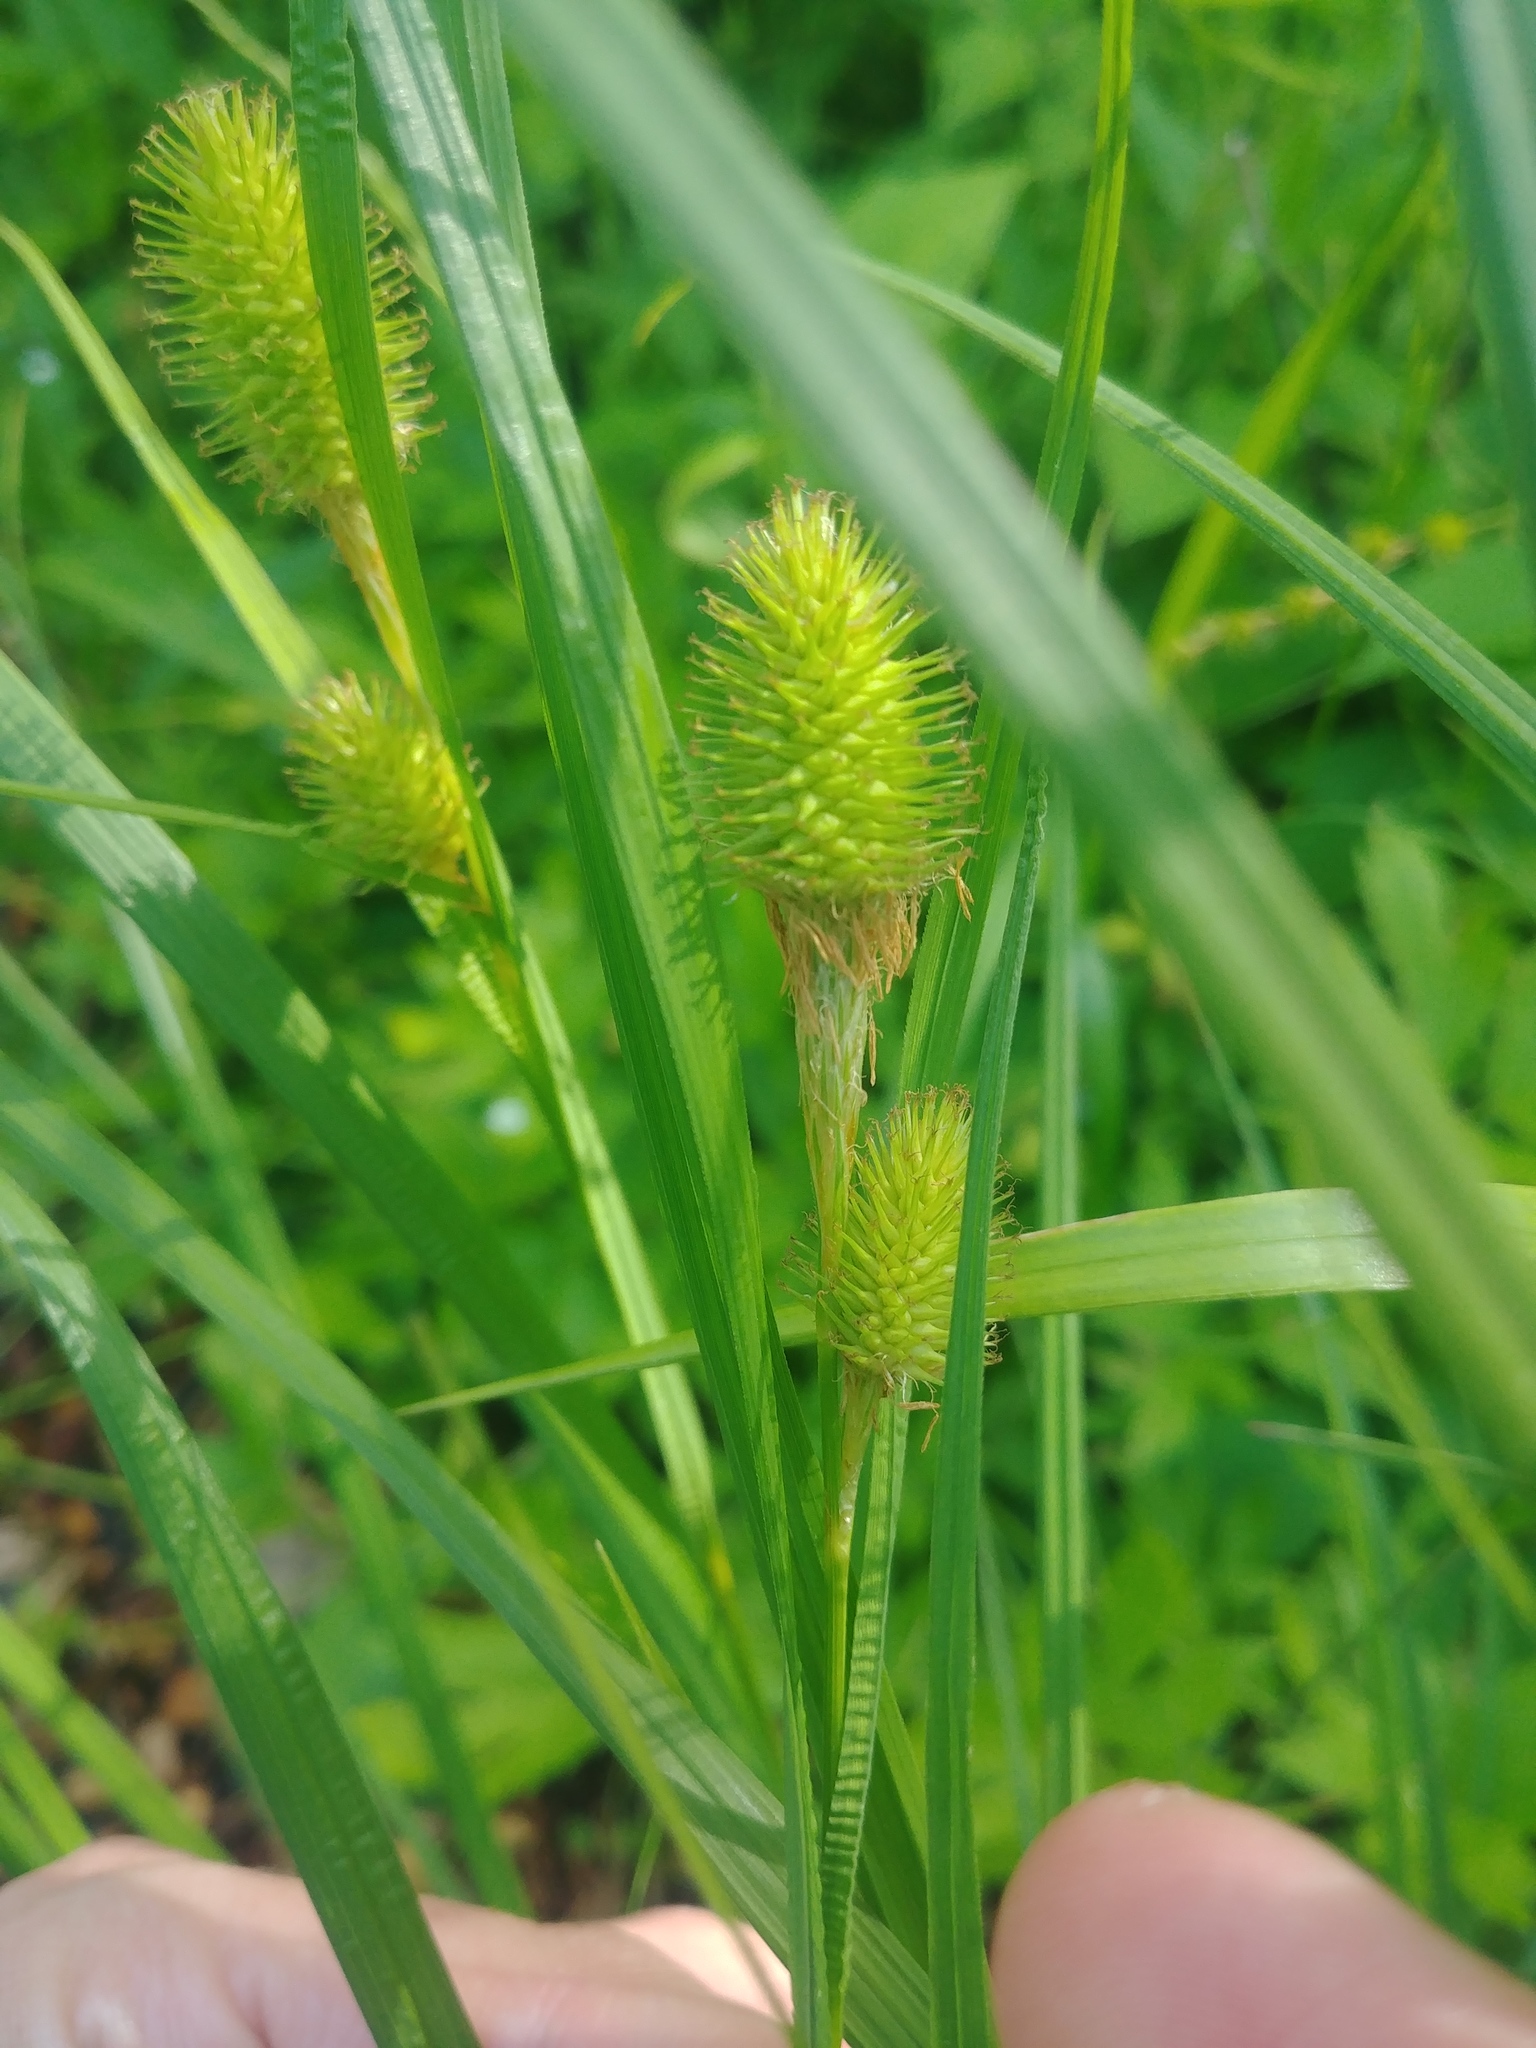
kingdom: Plantae
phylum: Tracheophyta
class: Liliopsida
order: Poales
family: Cyperaceae
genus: Carex
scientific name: Carex squarrosa
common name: Narrow-leaved cattail sedge
